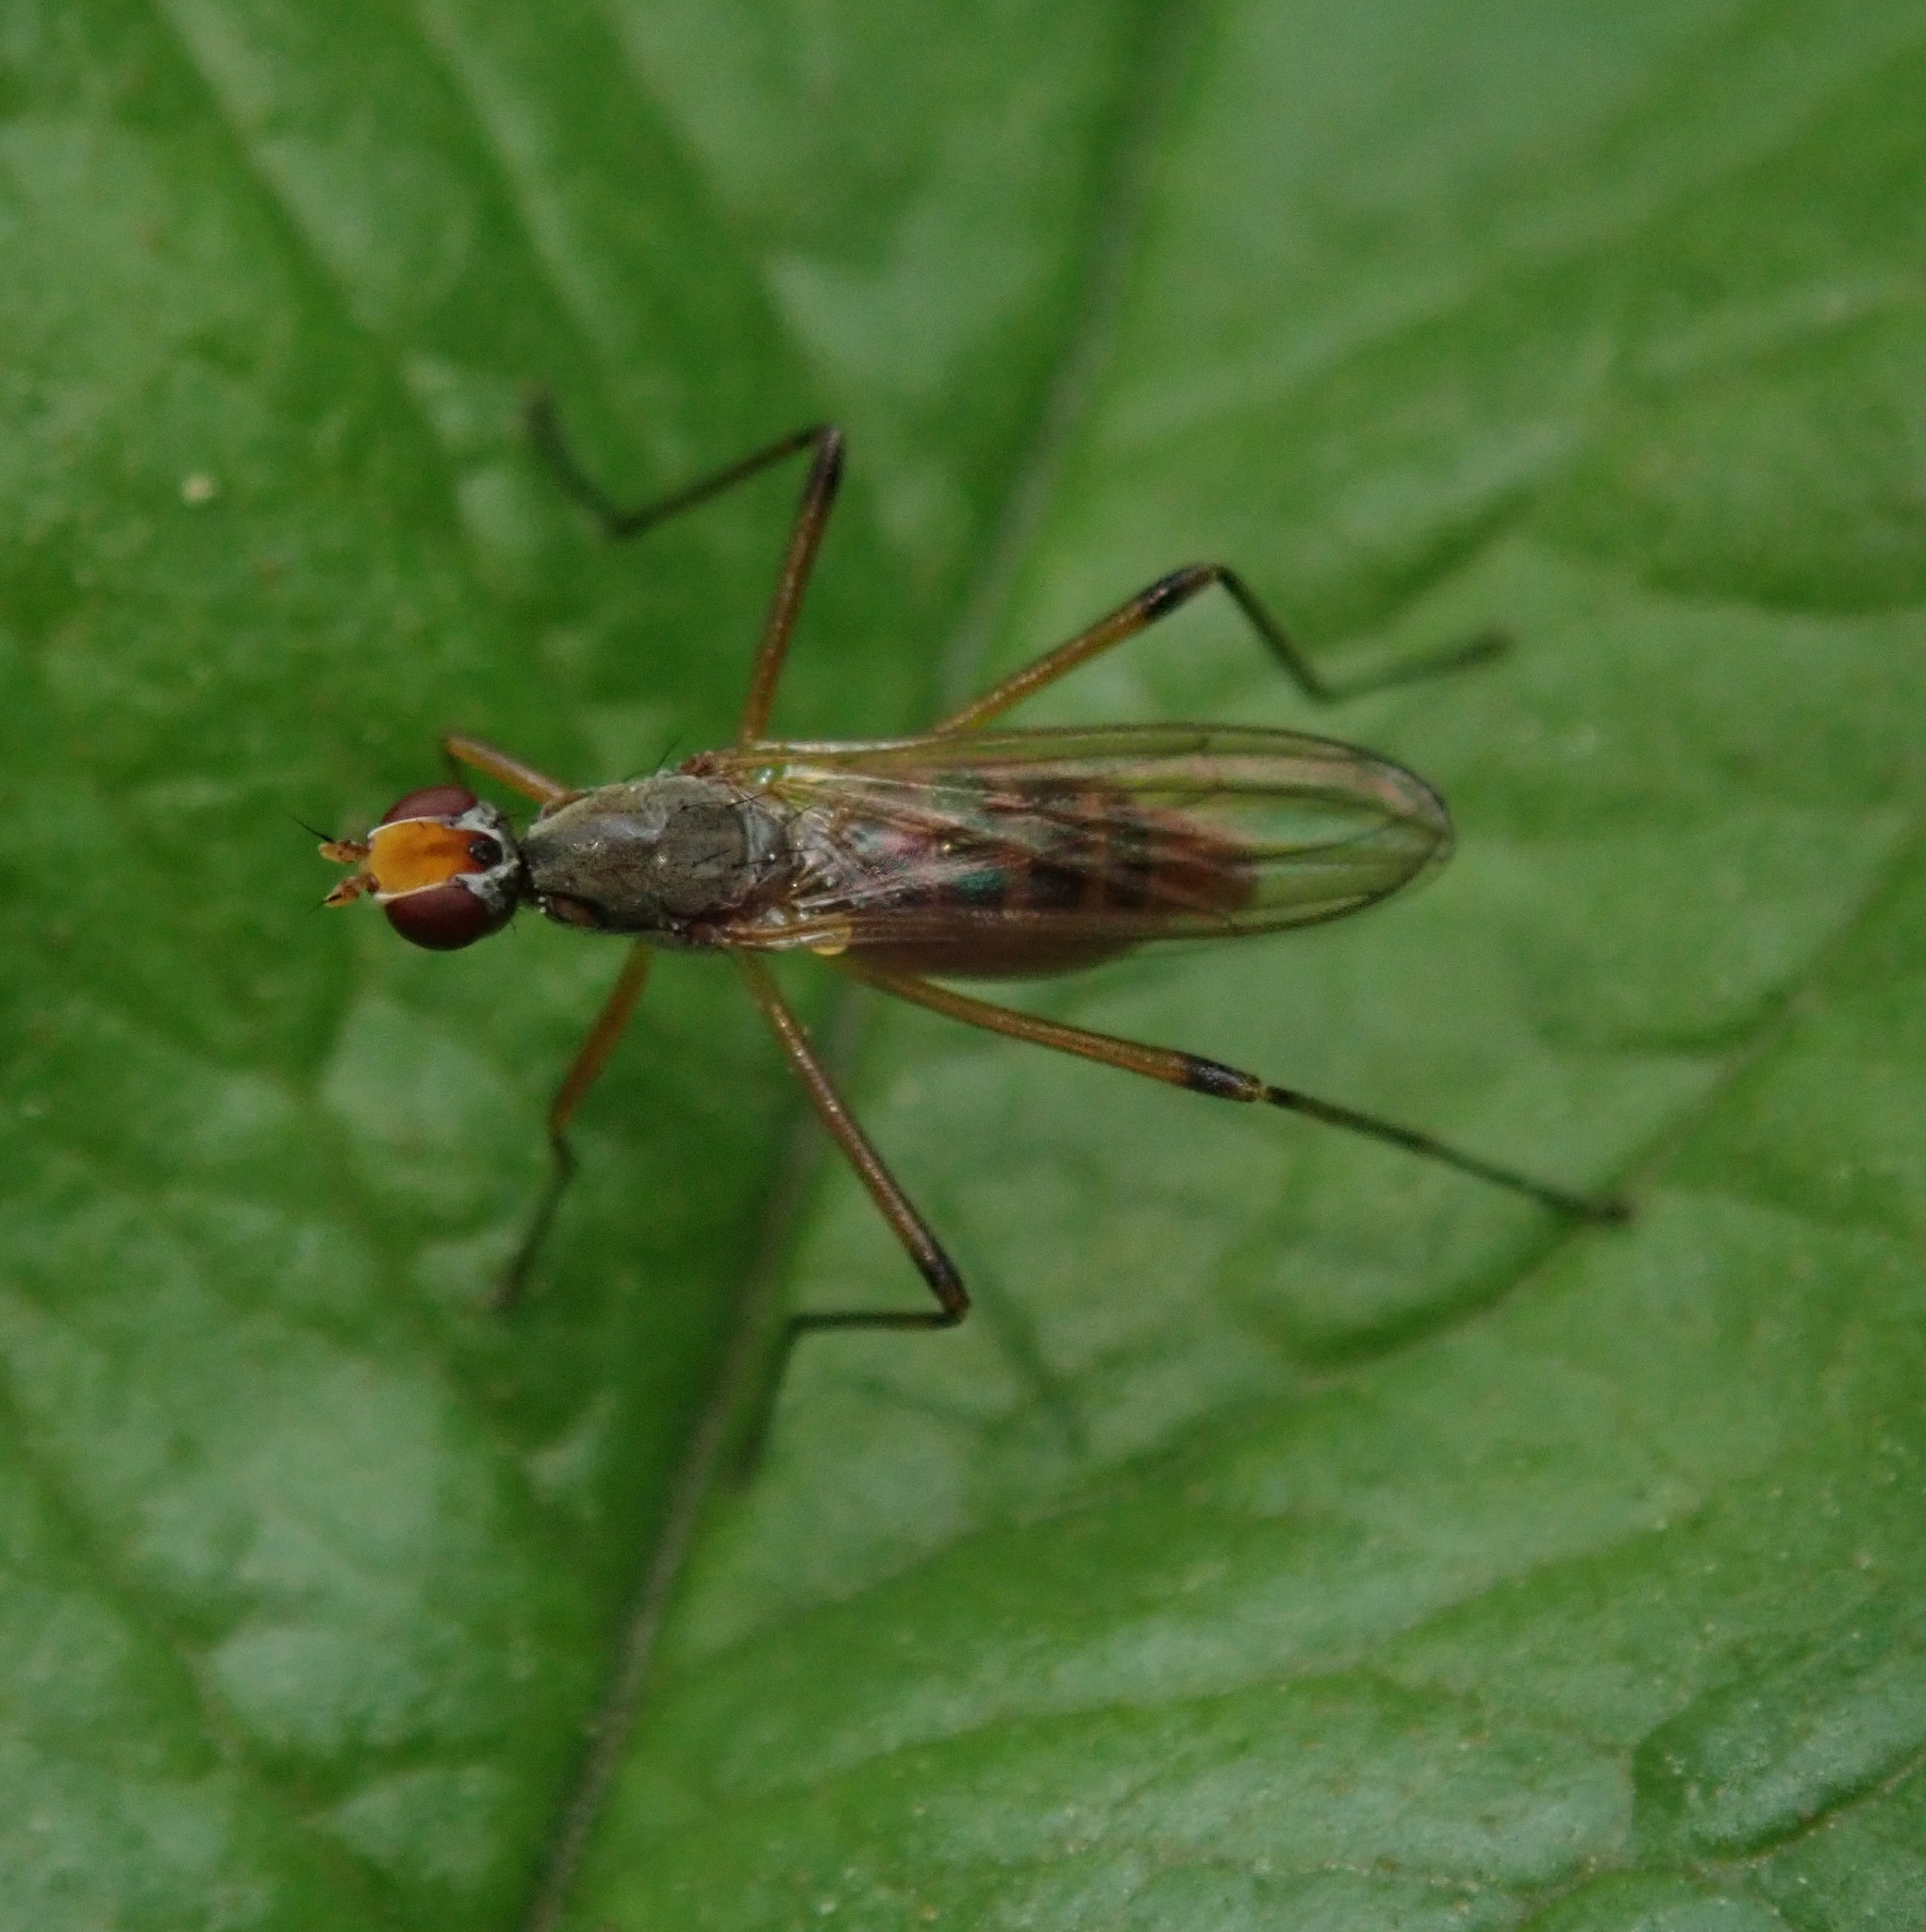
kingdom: Animalia
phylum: Arthropoda
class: Insecta
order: Diptera
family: Micropezidae
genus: Calobata
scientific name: Calobata petronella
